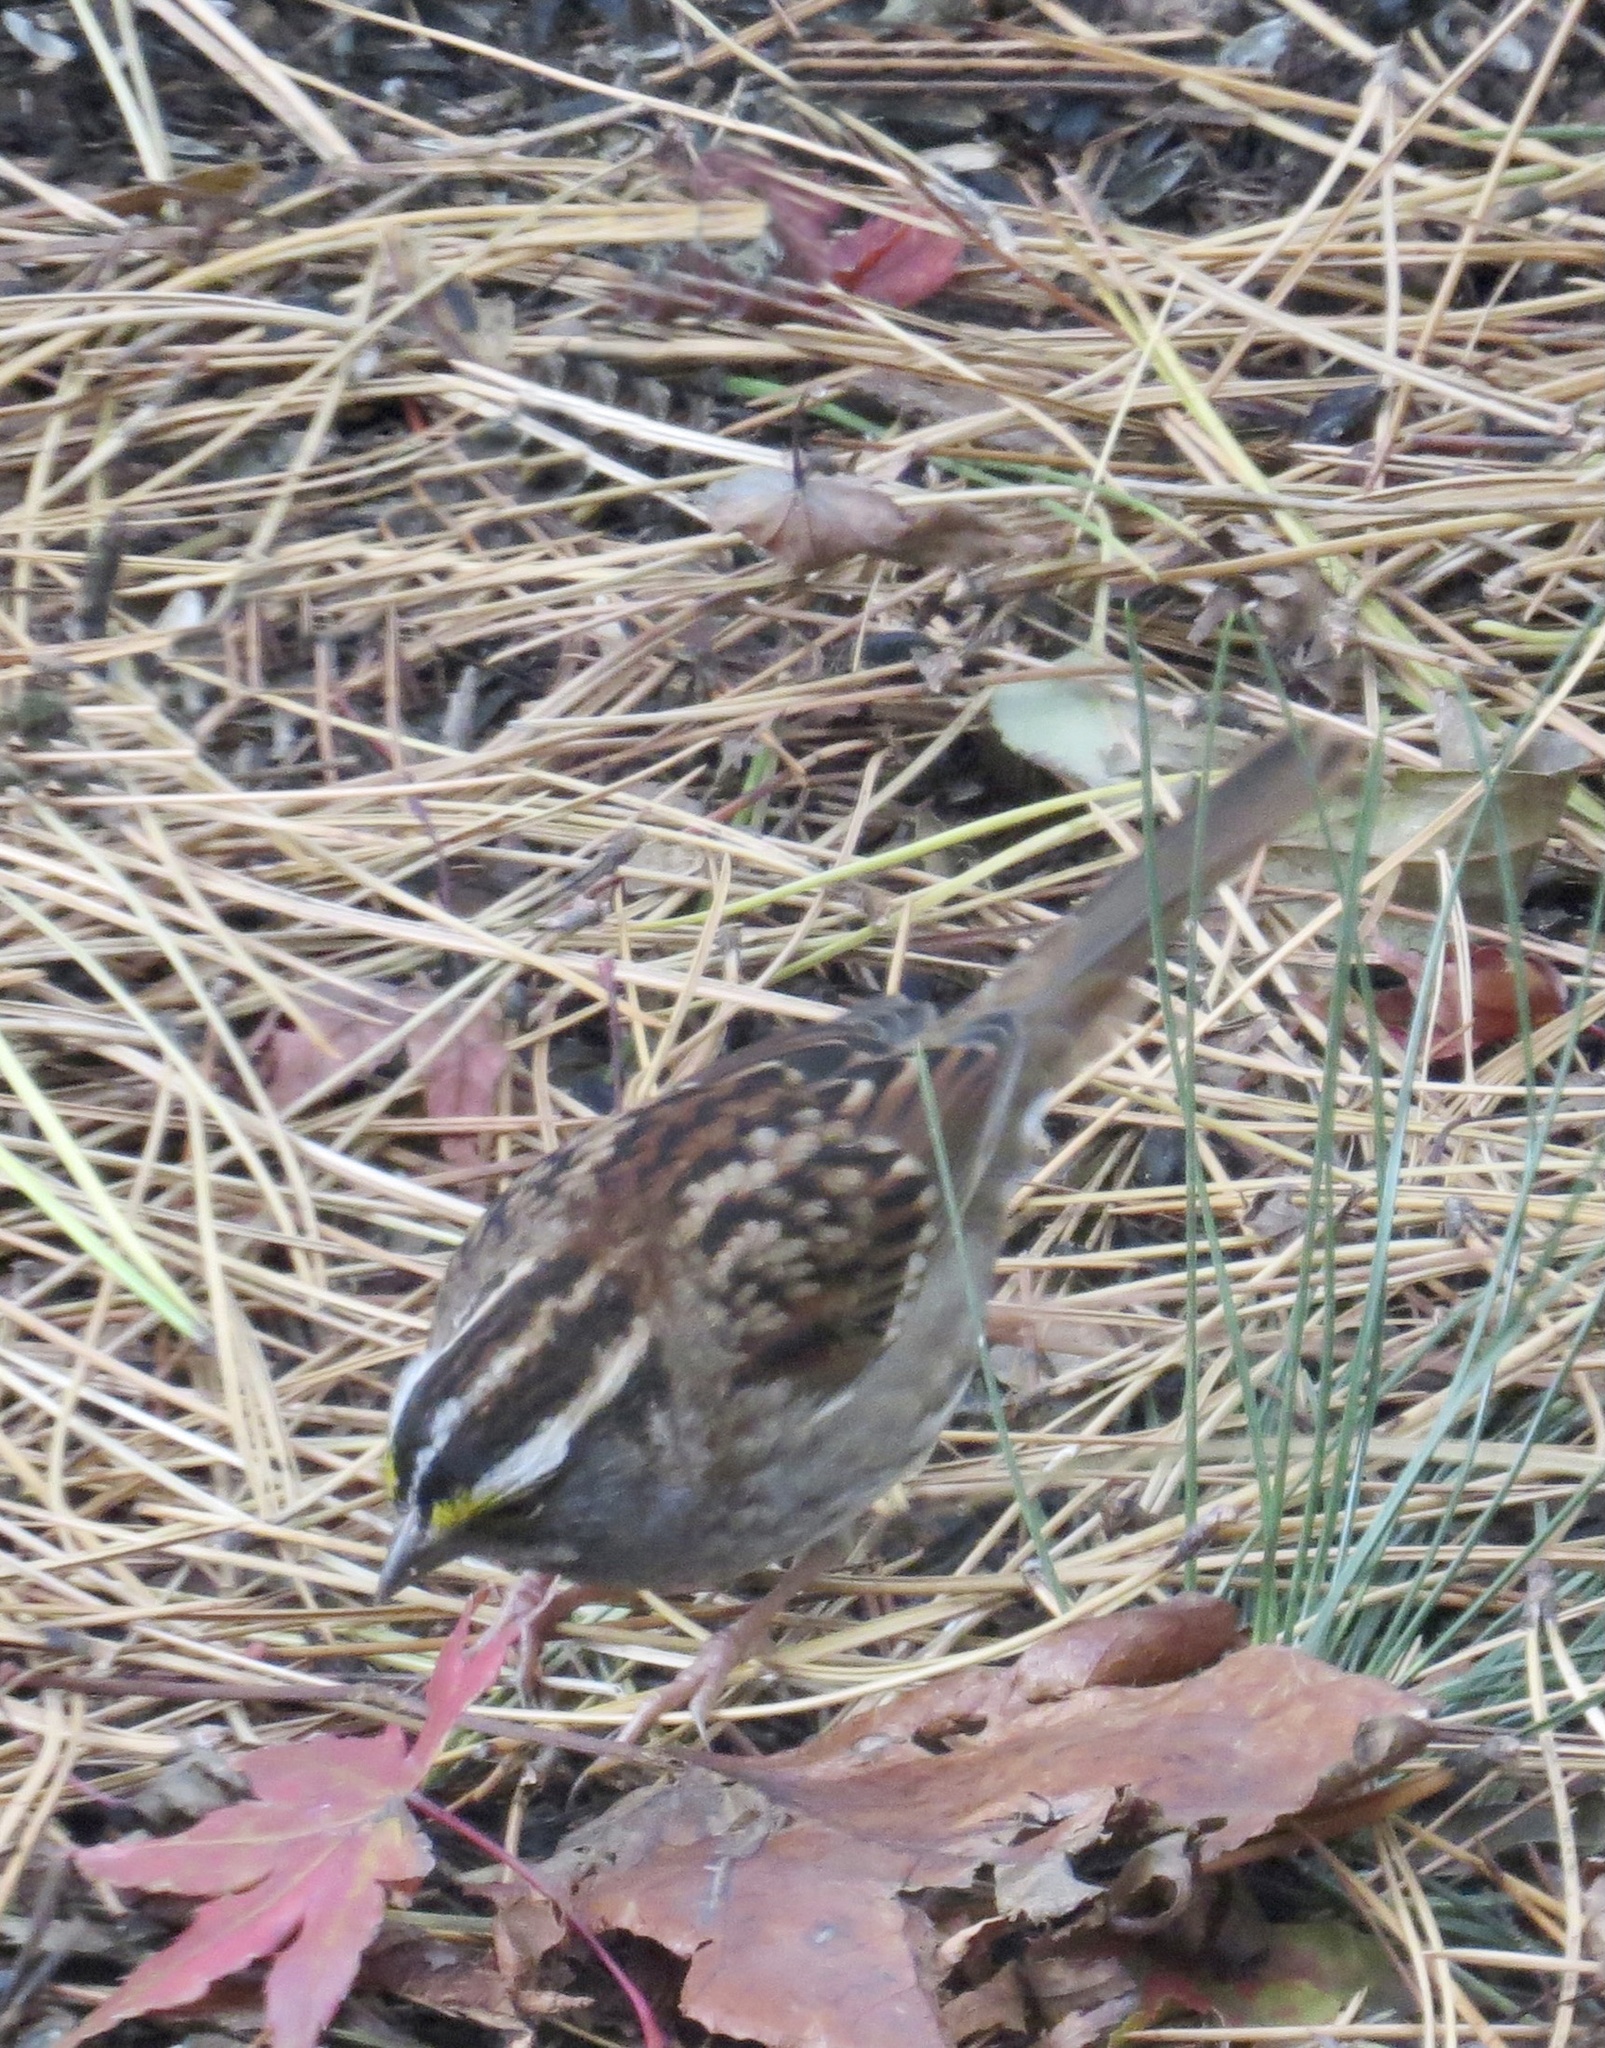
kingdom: Animalia
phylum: Chordata
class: Aves
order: Passeriformes
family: Passerellidae
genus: Zonotrichia
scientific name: Zonotrichia albicollis
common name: White-throated sparrow
